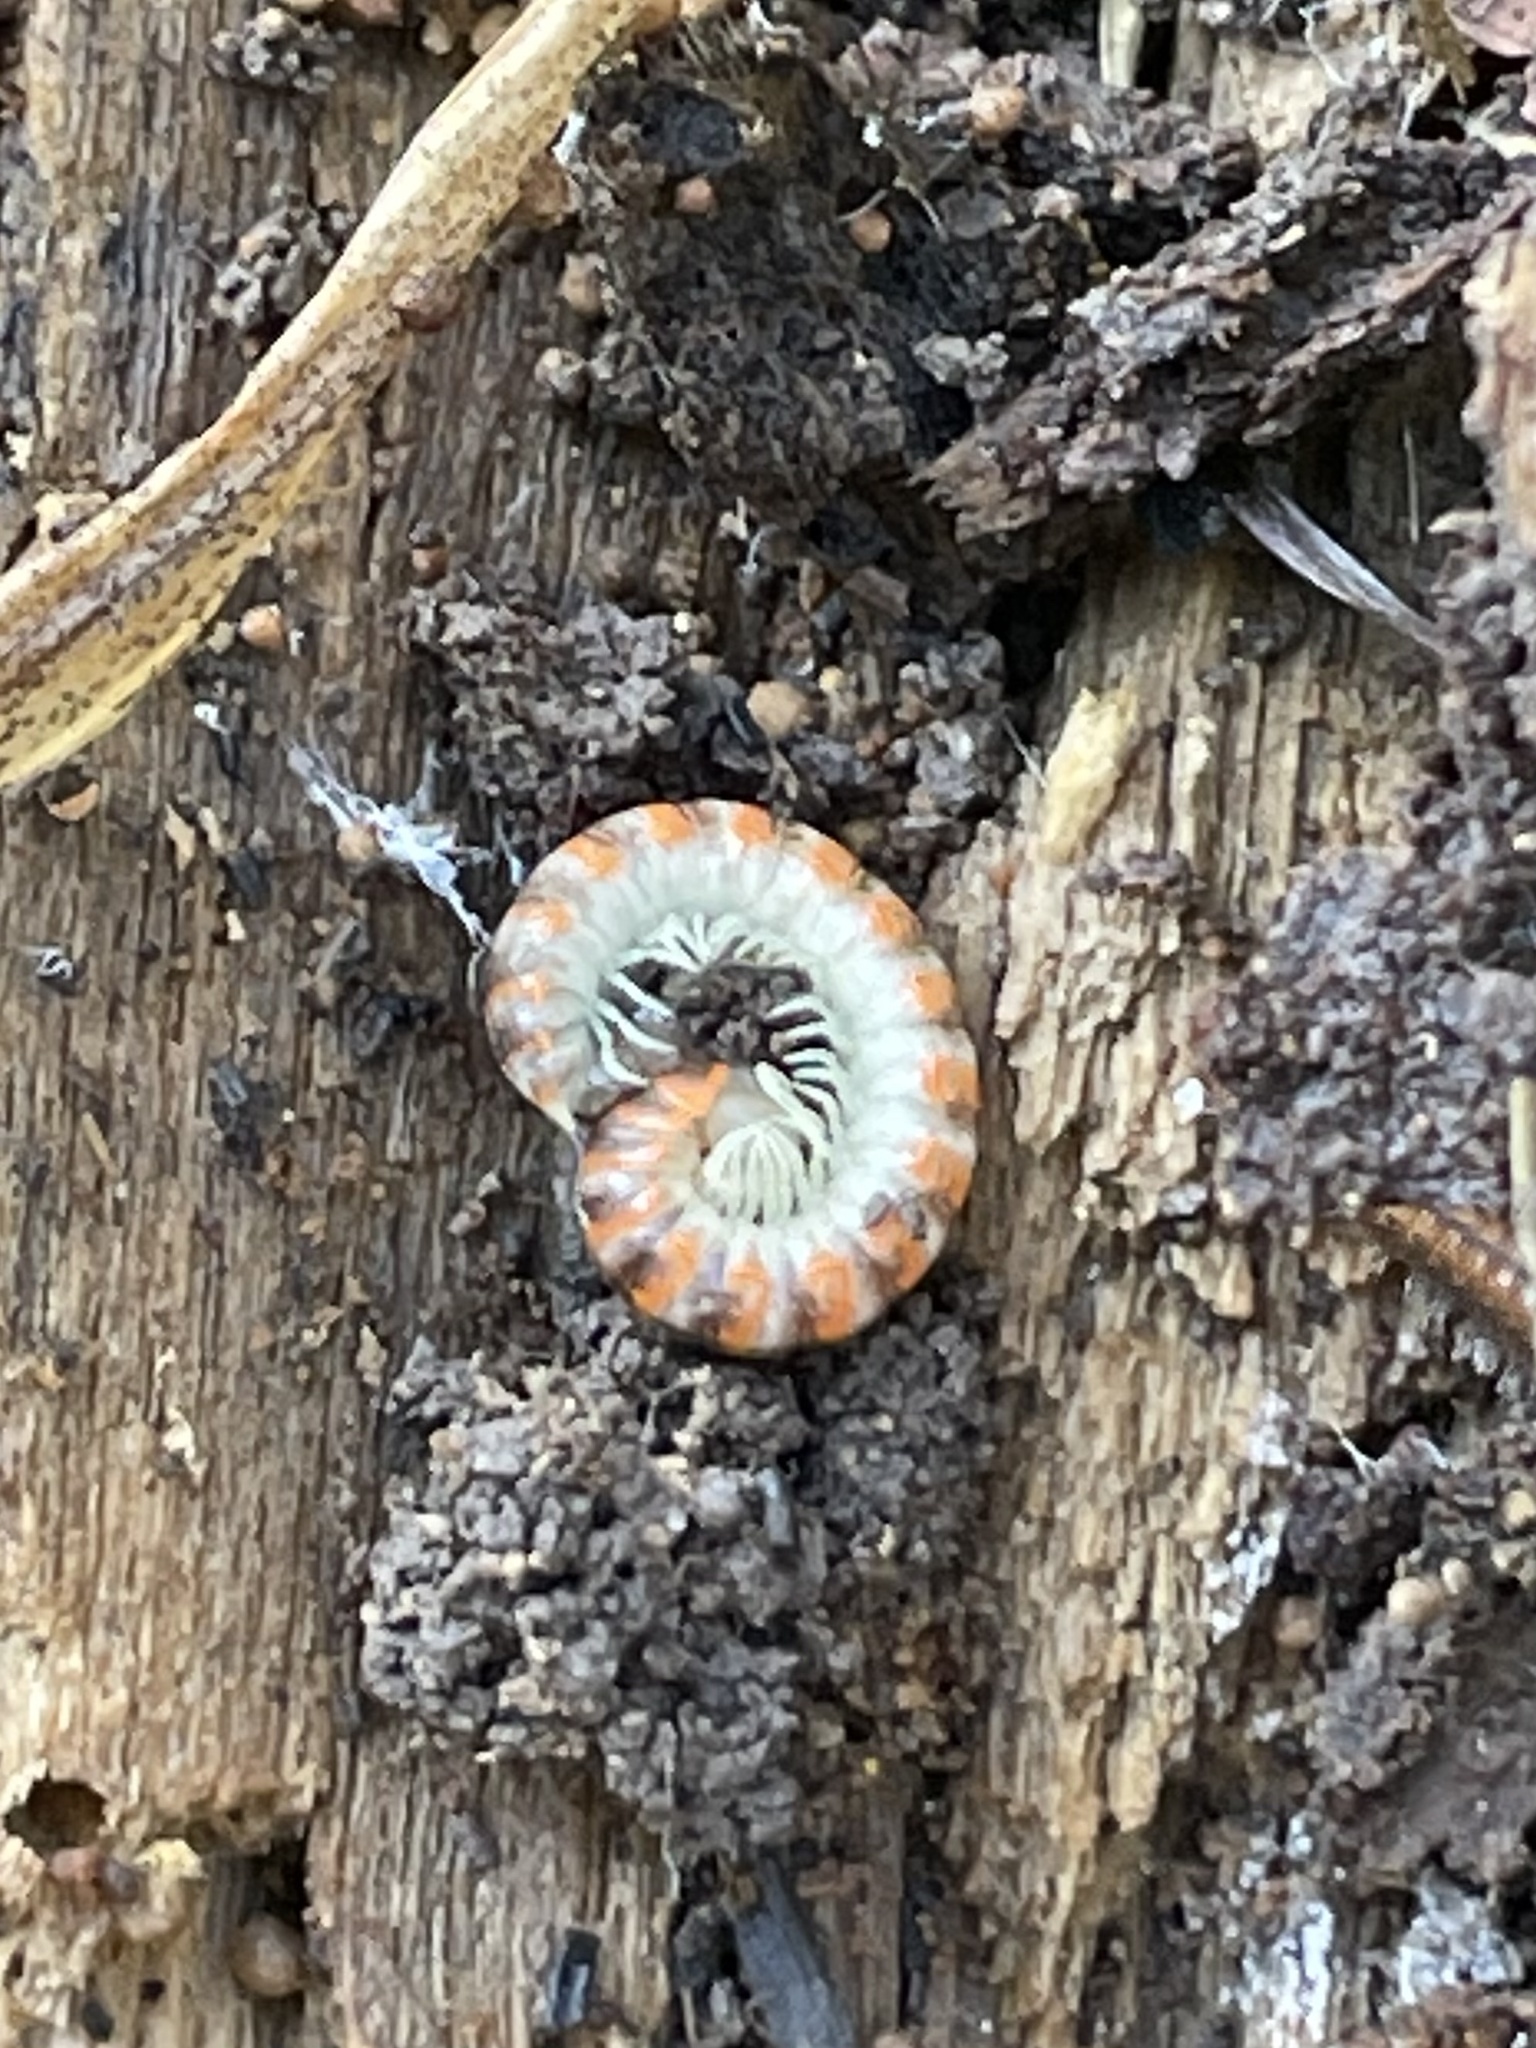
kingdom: Animalia
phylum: Arthropoda
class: Diplopoda
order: Polydesmida
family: Xystodesmidae
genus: Eurymerodesmus
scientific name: Eurymerodesmus melacis
